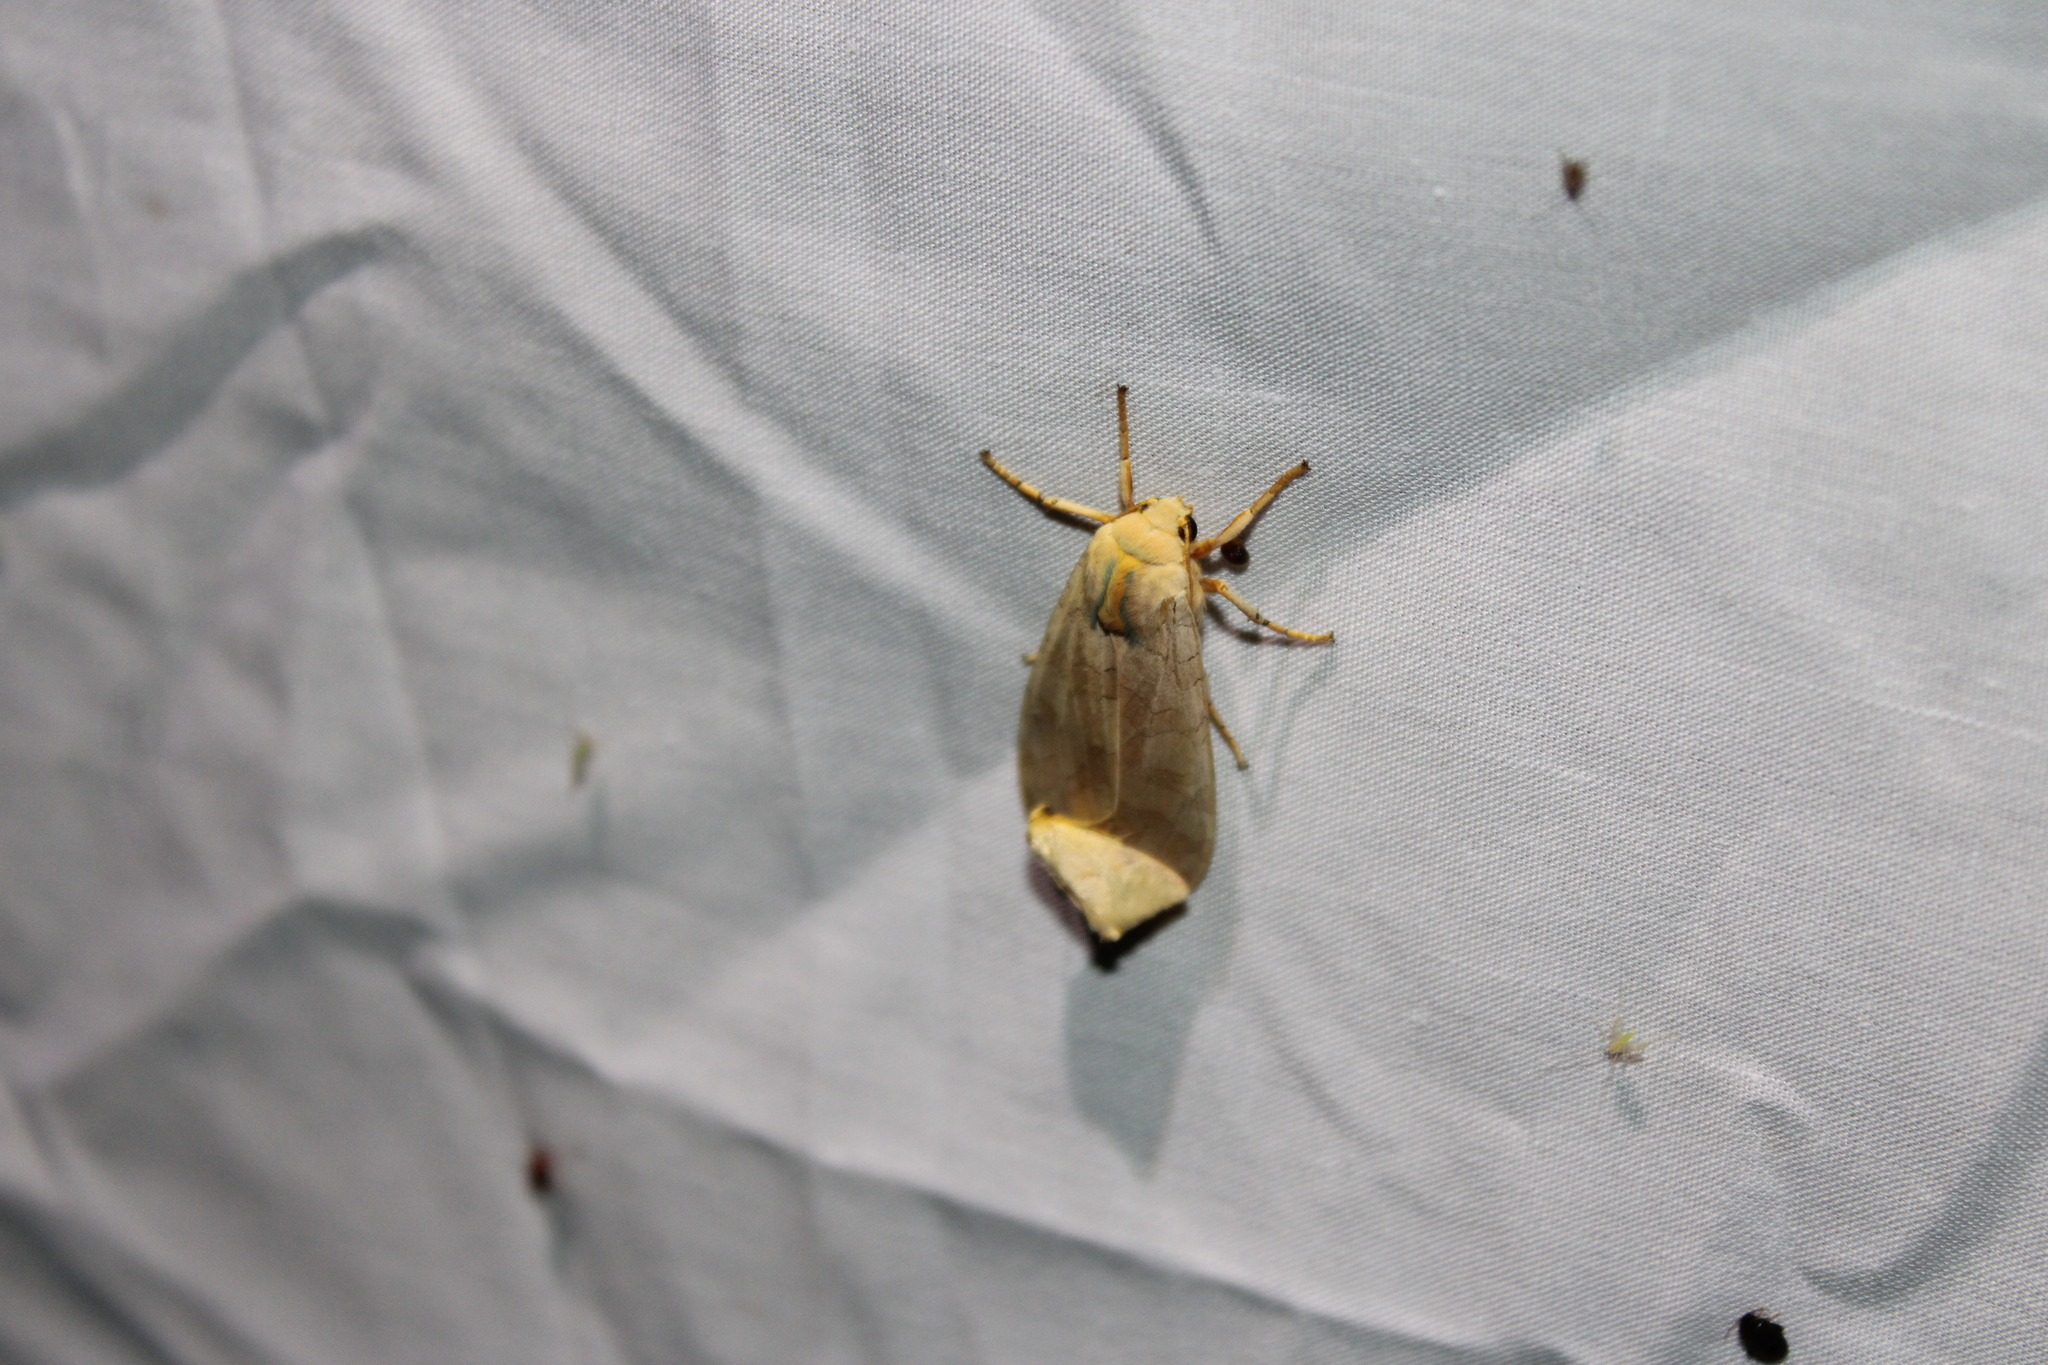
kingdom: Animalia
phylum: Arthropoda
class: Insecta
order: Lepidoptera
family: Erebidae
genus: Halysidota
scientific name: Halysidota
